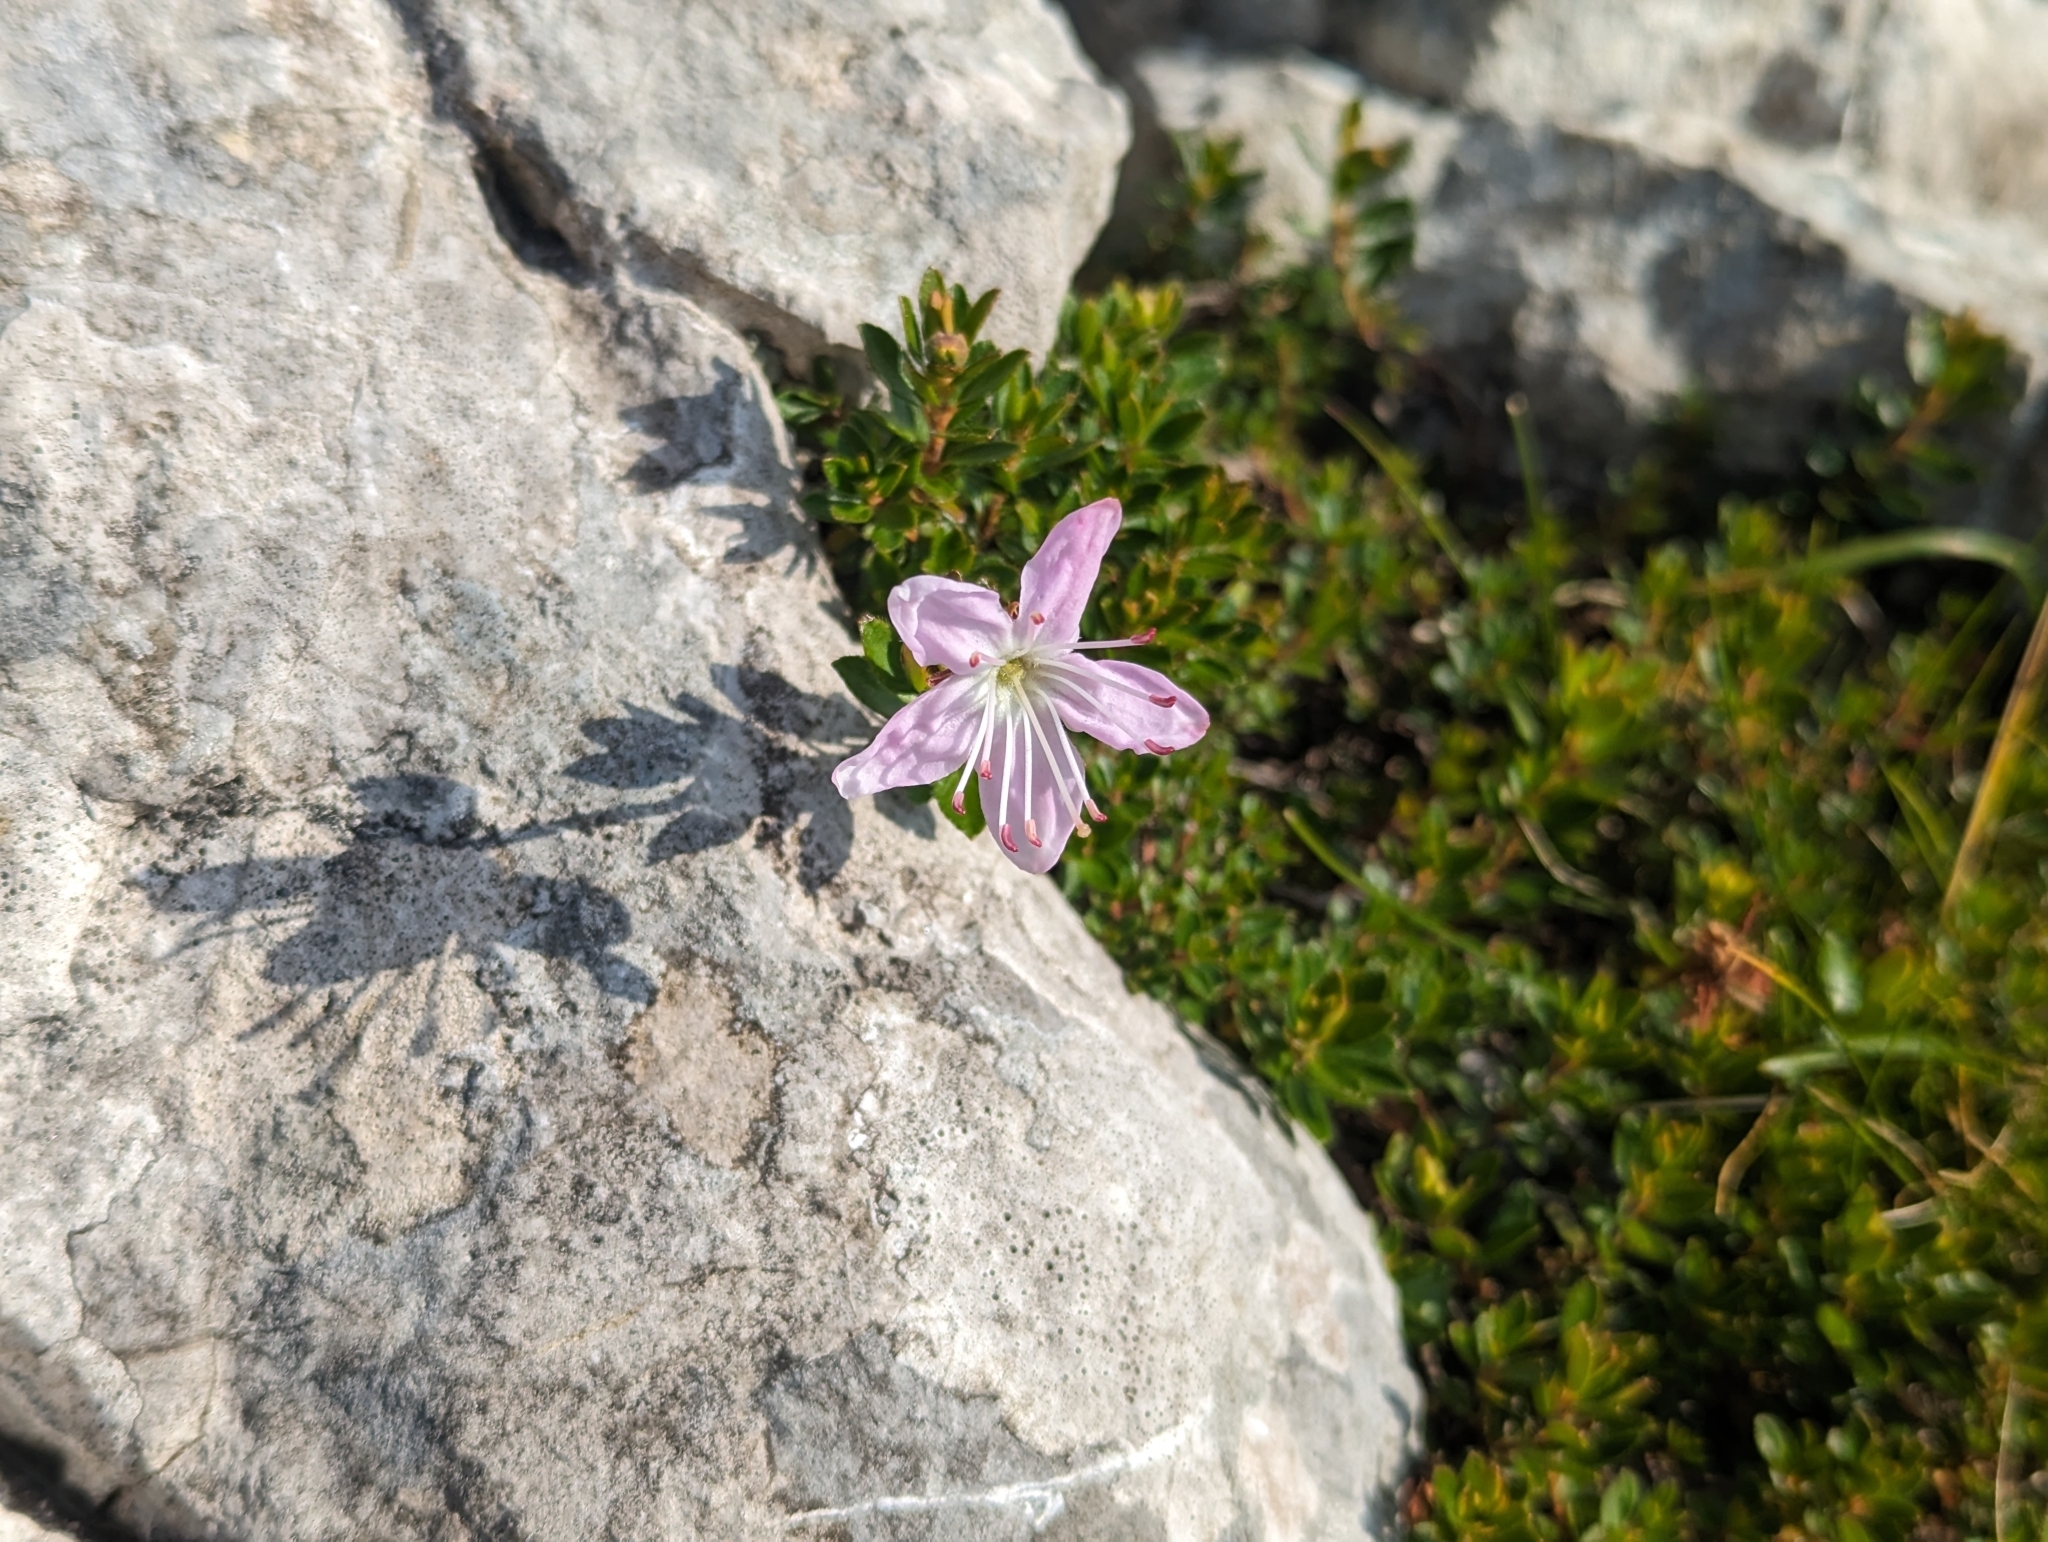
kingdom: Plantae
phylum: Tracheophyta
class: Magnoliopsida
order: Ericales
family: Ericaceae
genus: Rhodothamnus
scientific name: Rhodothamnus chamaecistus
